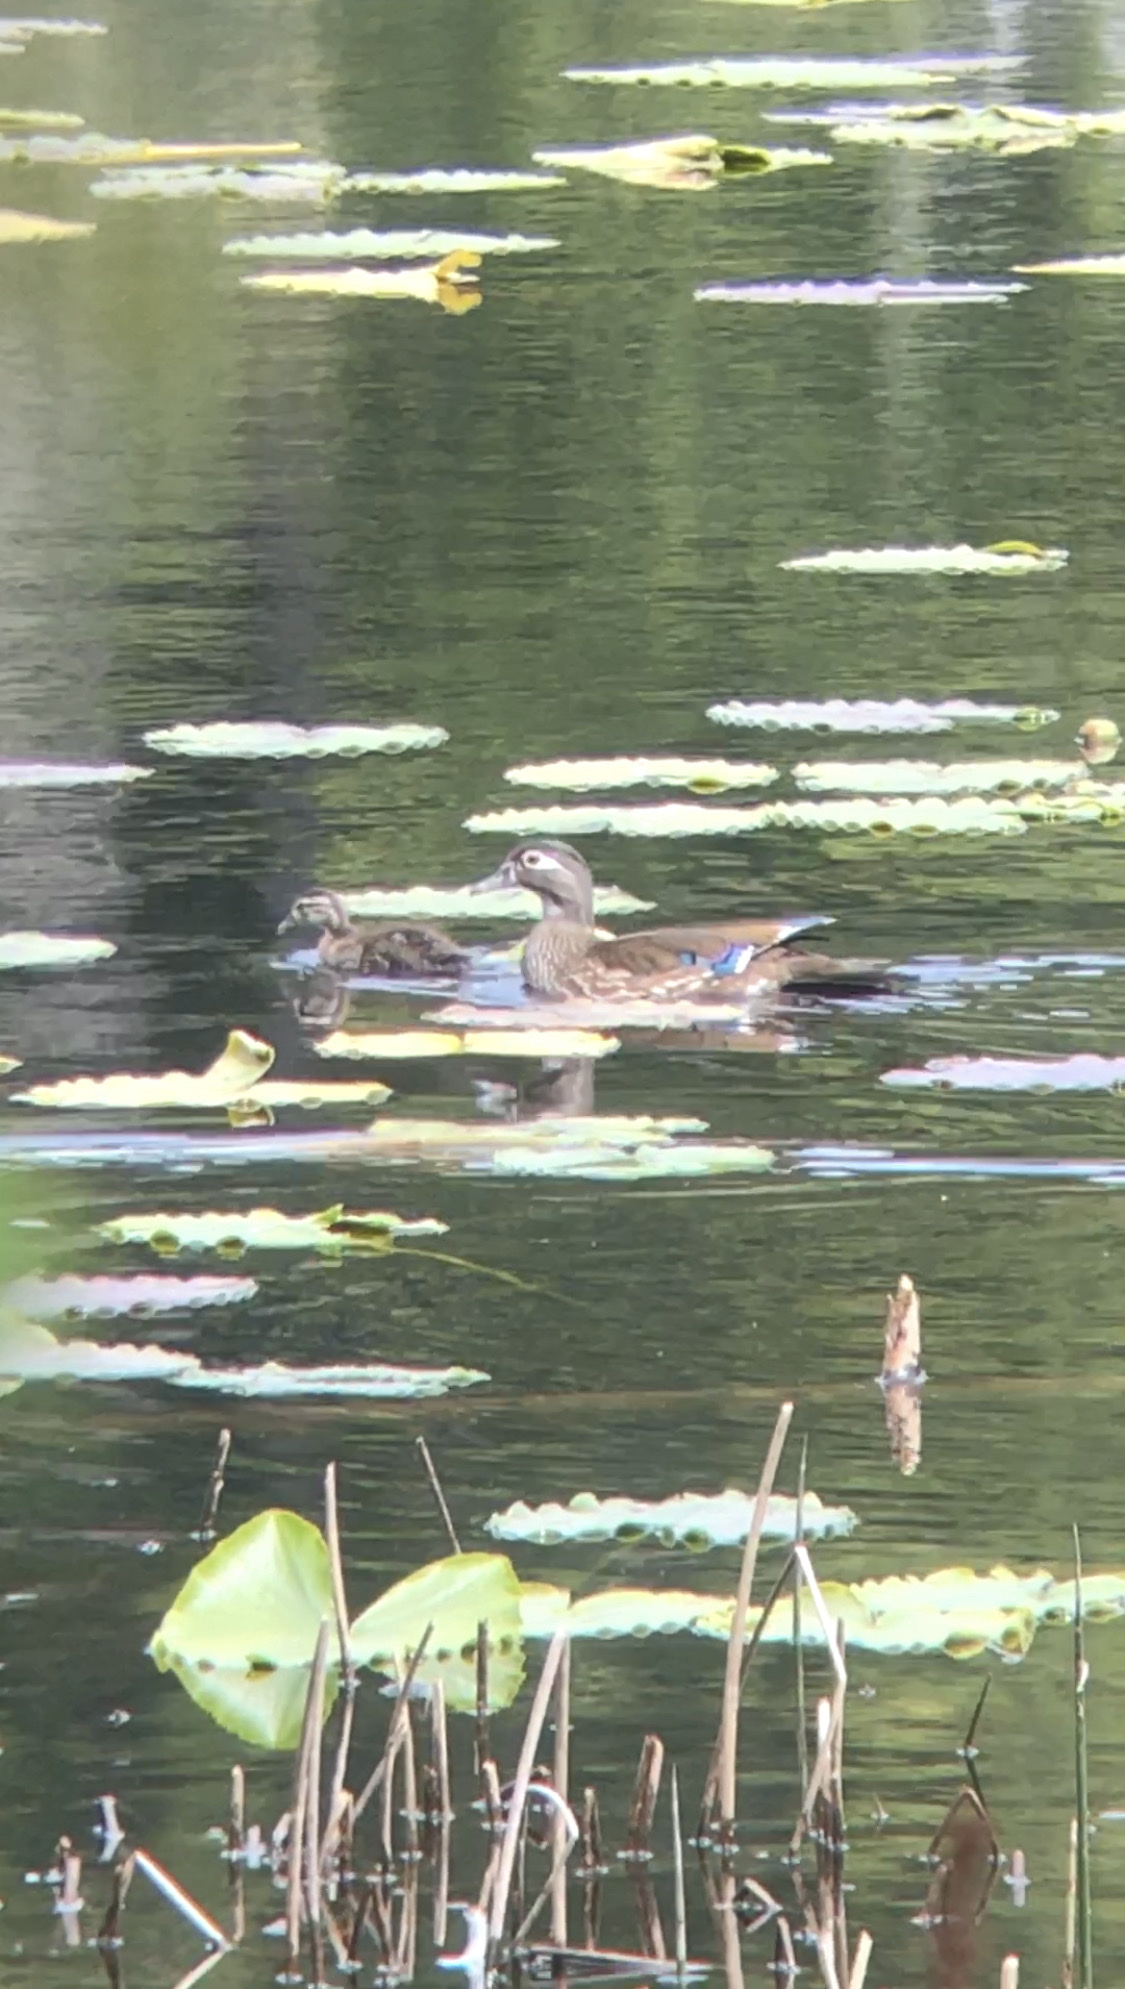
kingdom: Animalia
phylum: Chordata
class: Aves
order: Anseriformes
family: Anatidae
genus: Aix
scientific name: Aix sponsa
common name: Wood duck
